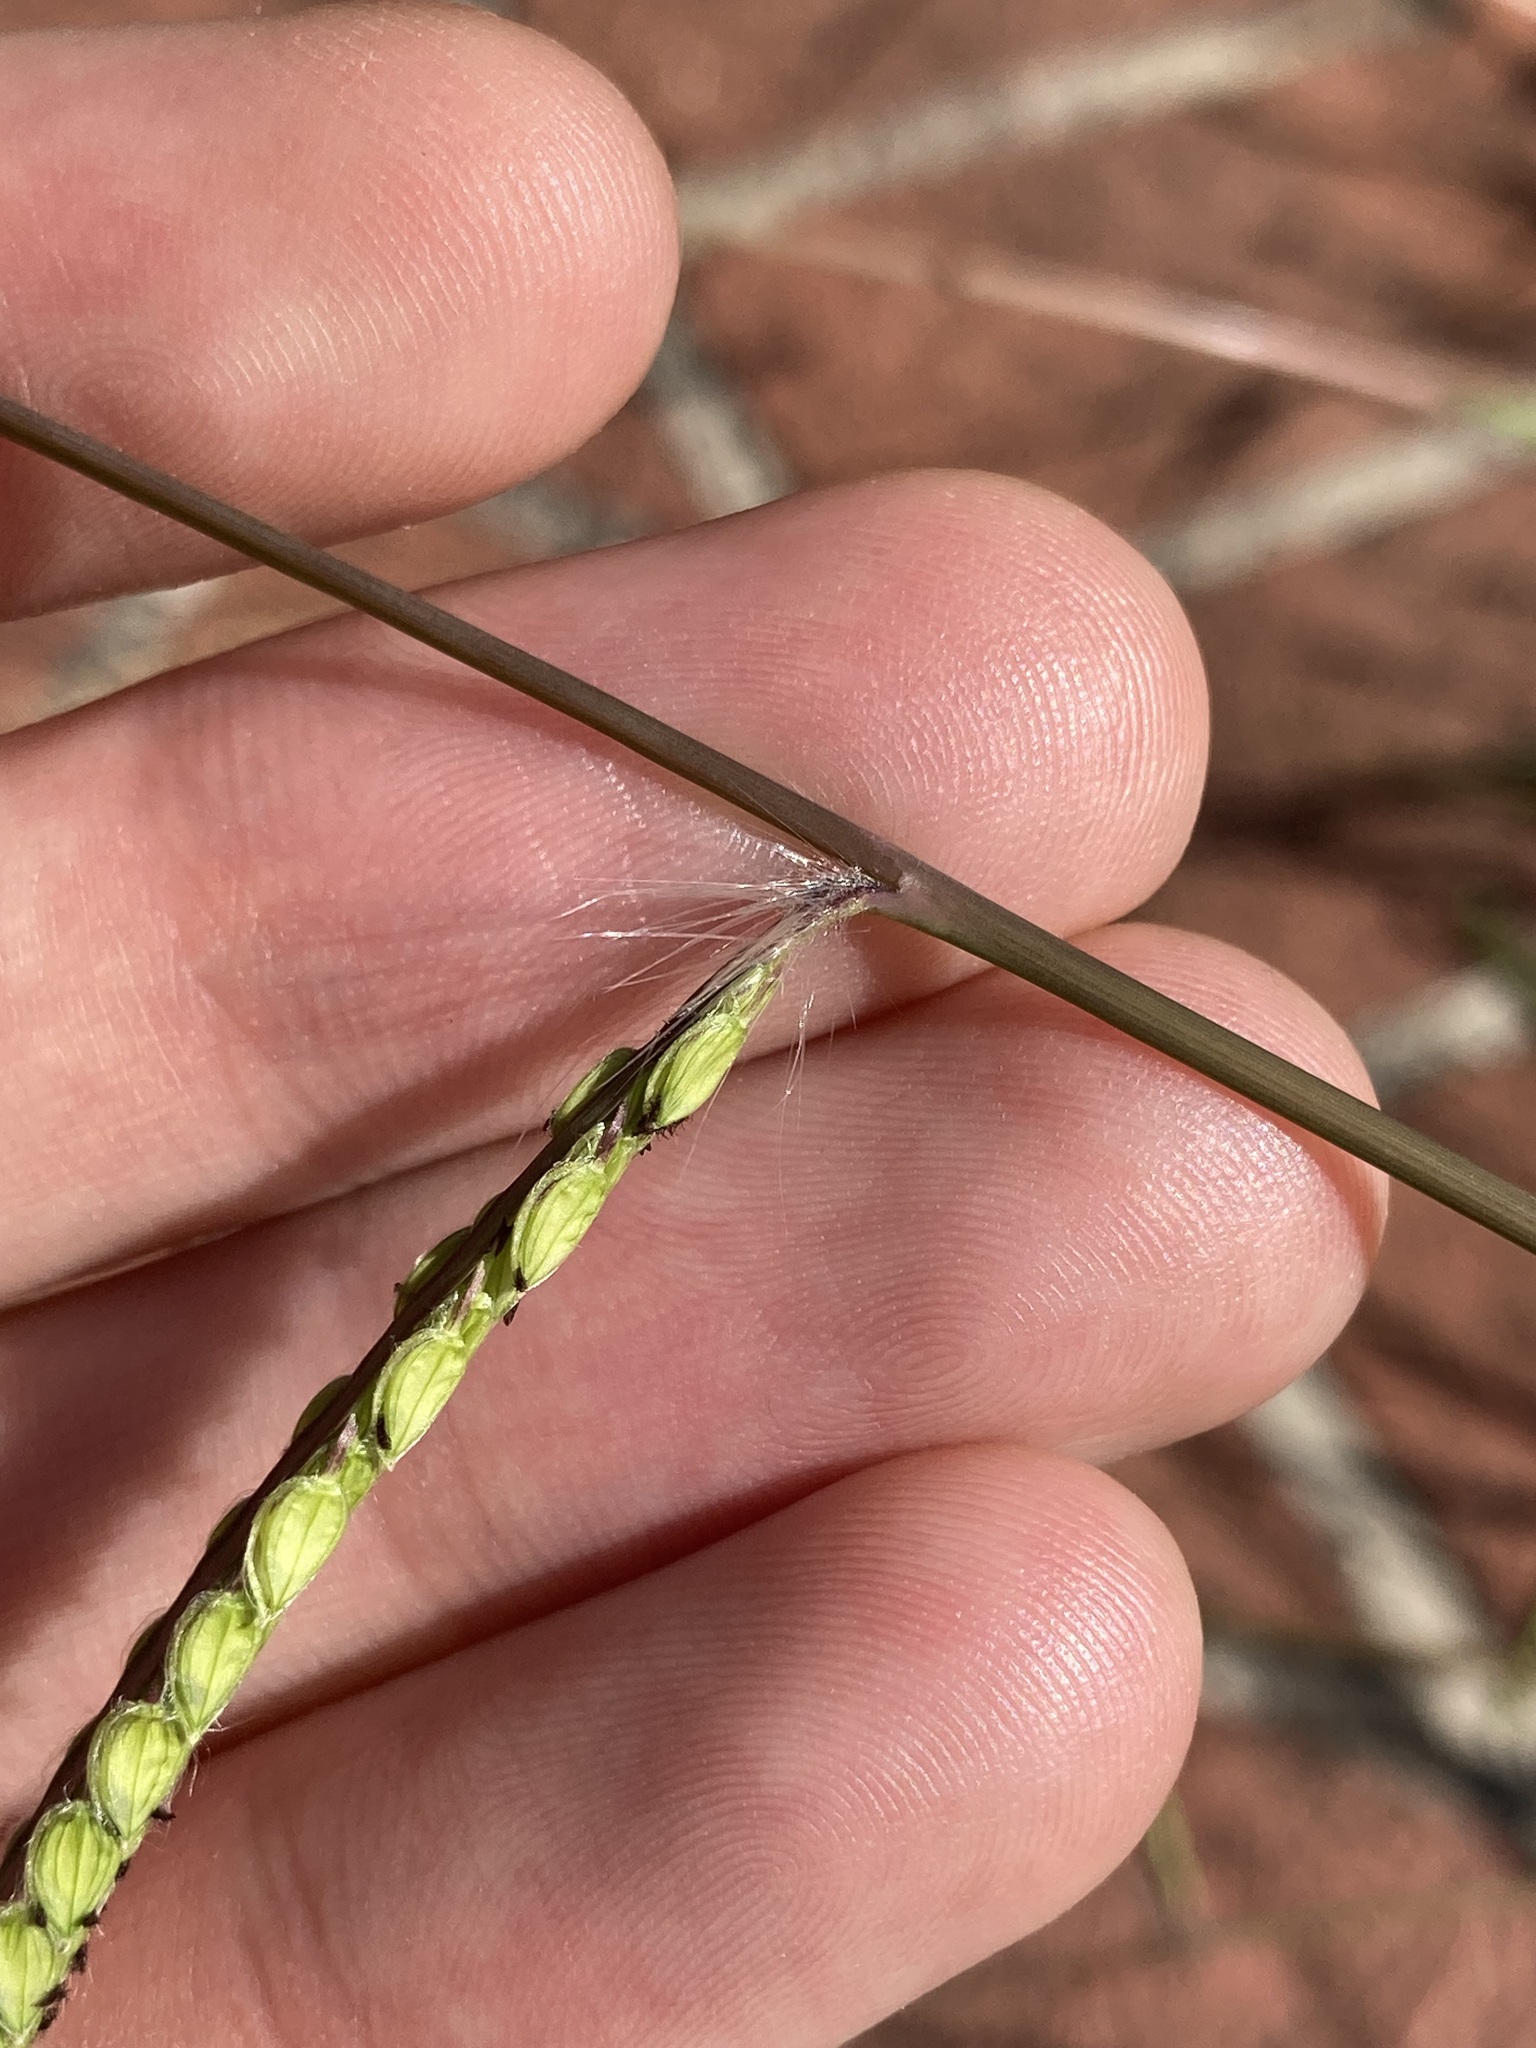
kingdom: Plantae
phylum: Tracheophyta
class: Liliopsida
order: Poales
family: Poaceae
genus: Paspalum
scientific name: Paspalum dilatatum
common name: Dallisgrass
